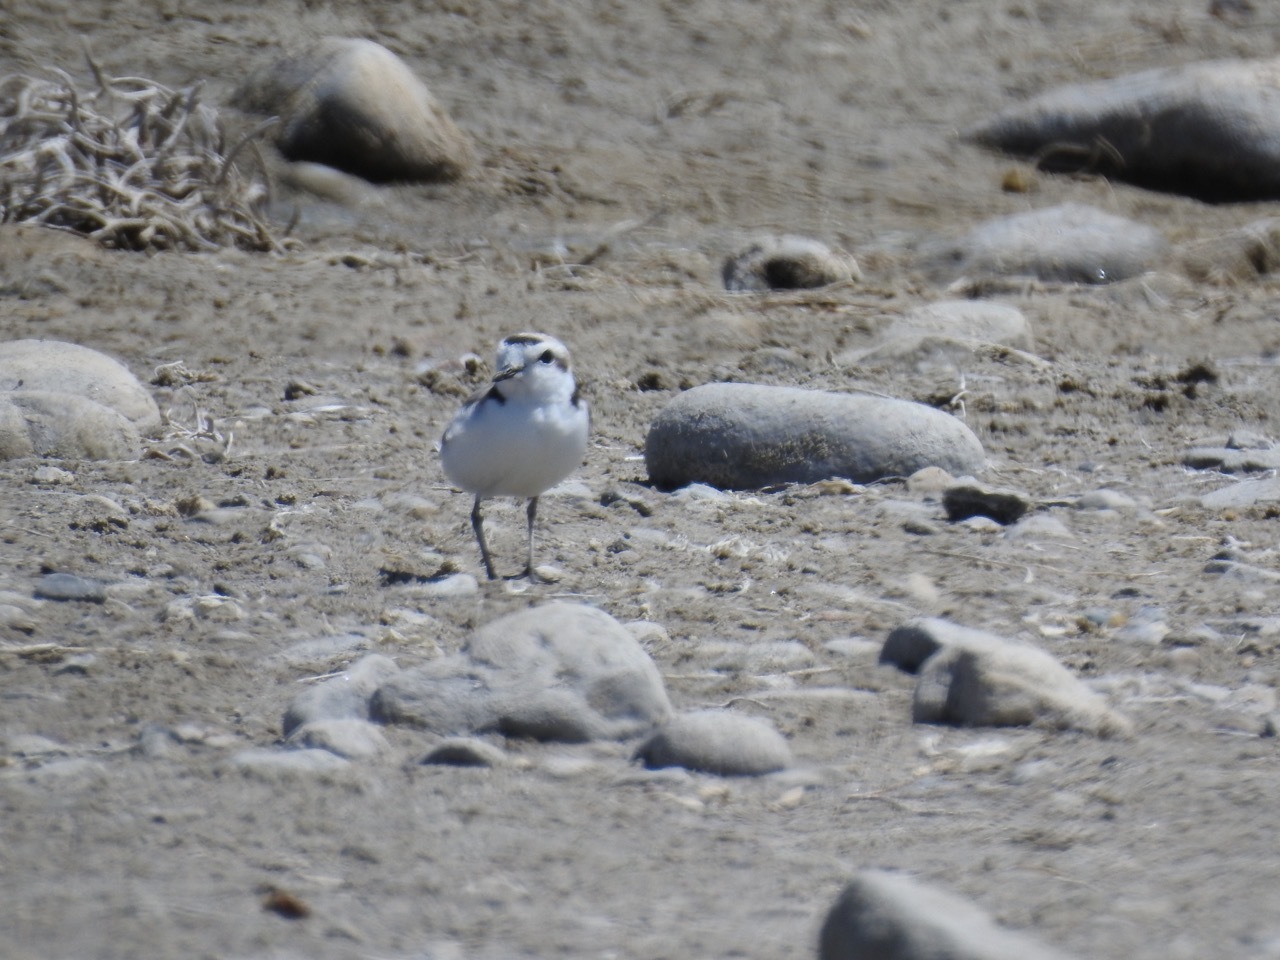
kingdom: Animalia
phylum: Chordata
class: Aves
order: Charadriiformes
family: Charadriidae
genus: Anarhynchus
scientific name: Anarhynchus
